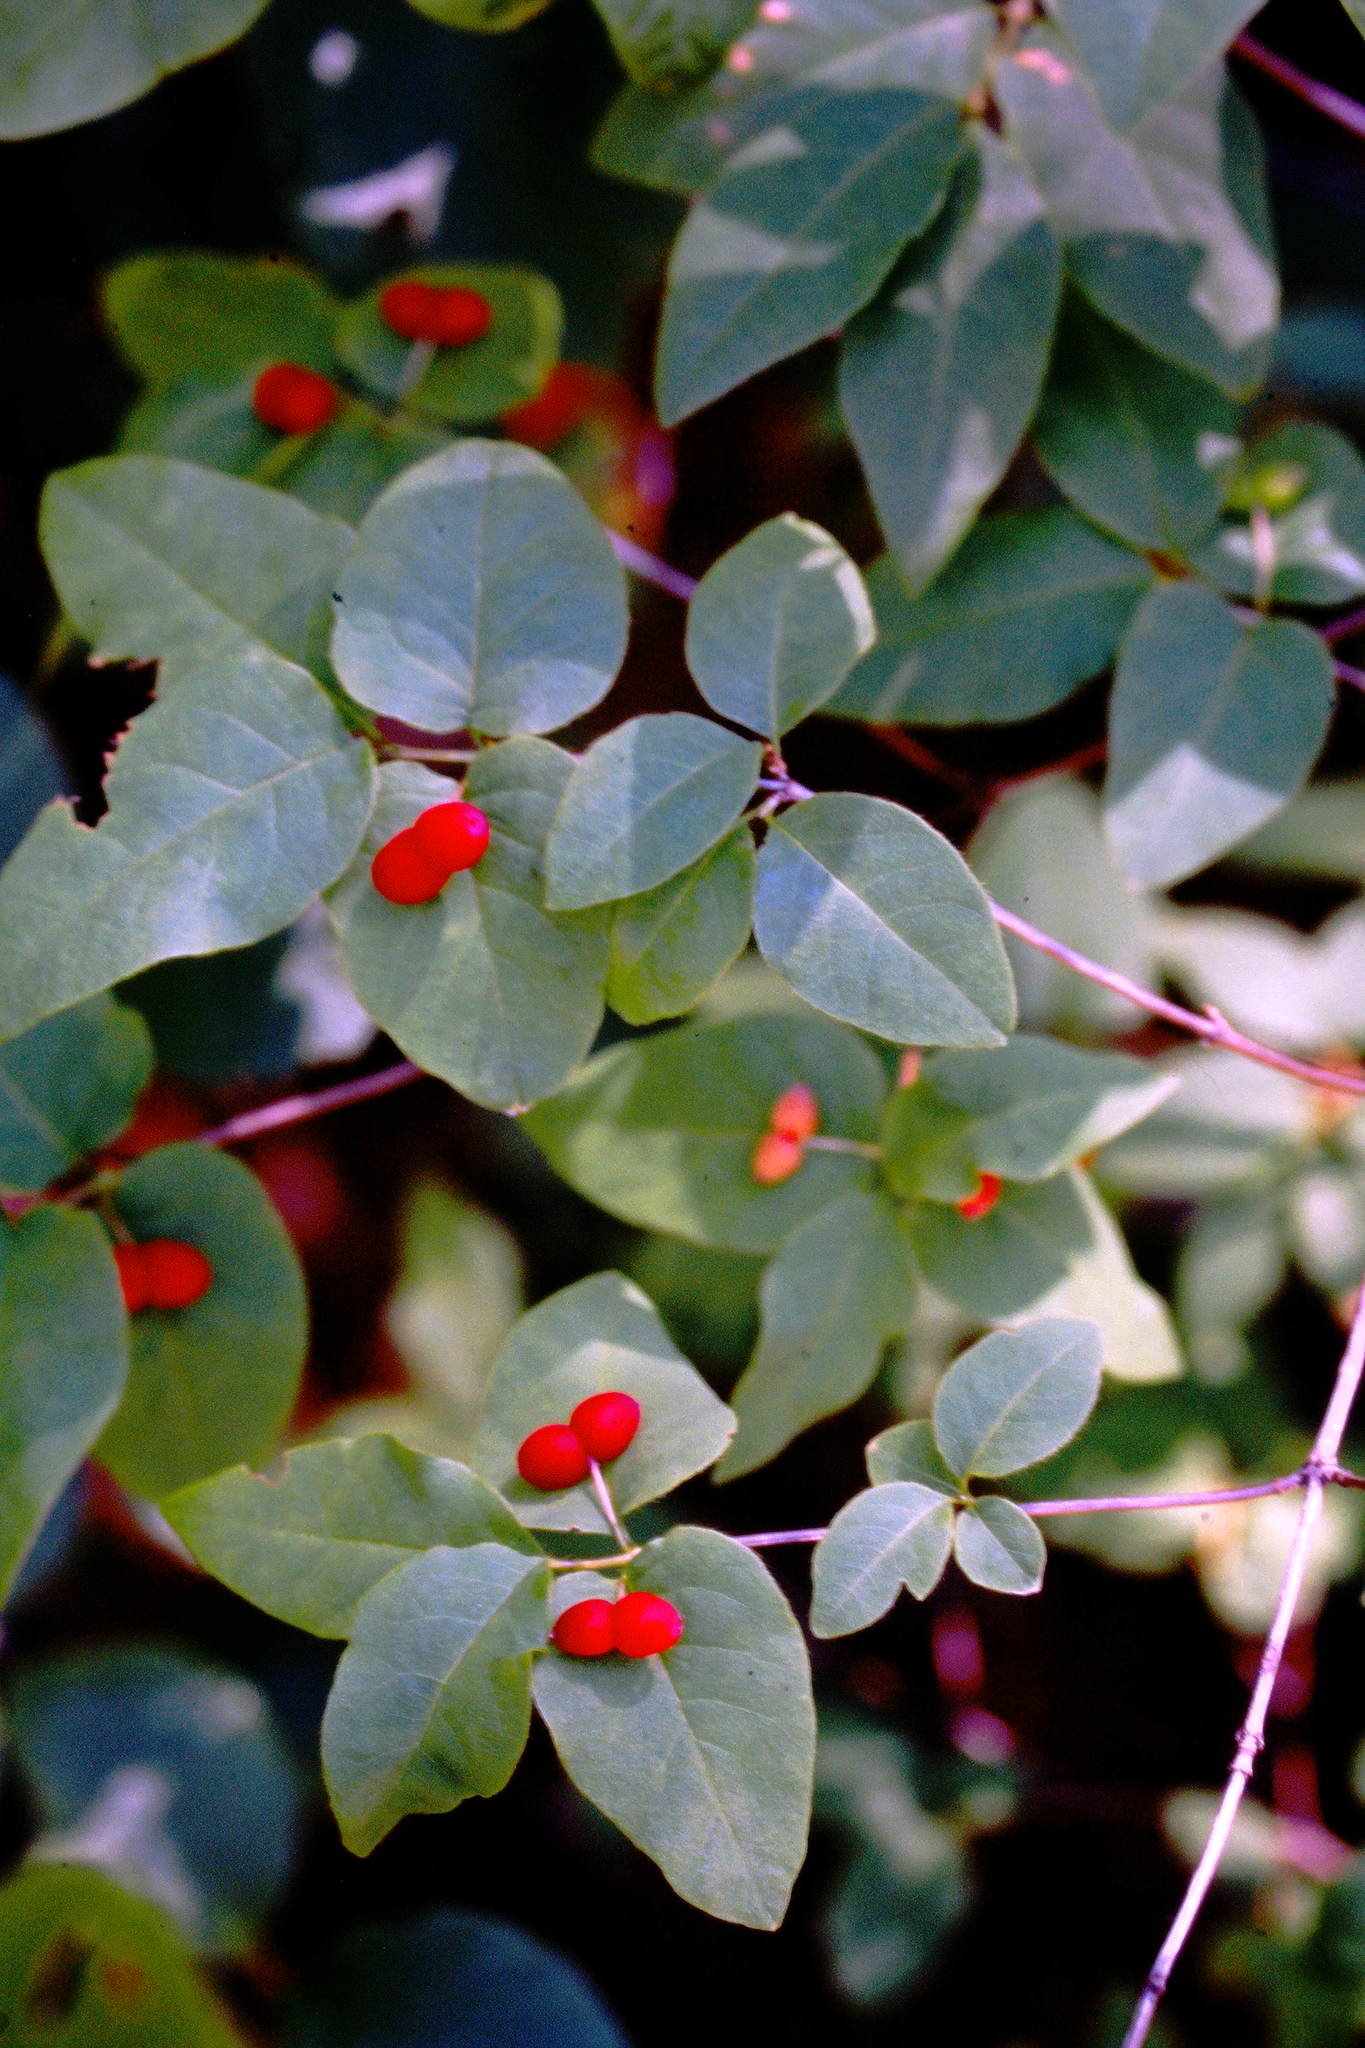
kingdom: Plantae
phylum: Tracheophyta
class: Magnoliopsida
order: Dipsacales
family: Caprifoliaceae
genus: Lonicera
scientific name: Lonicera canadensis
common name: American fly-honeysuckle
